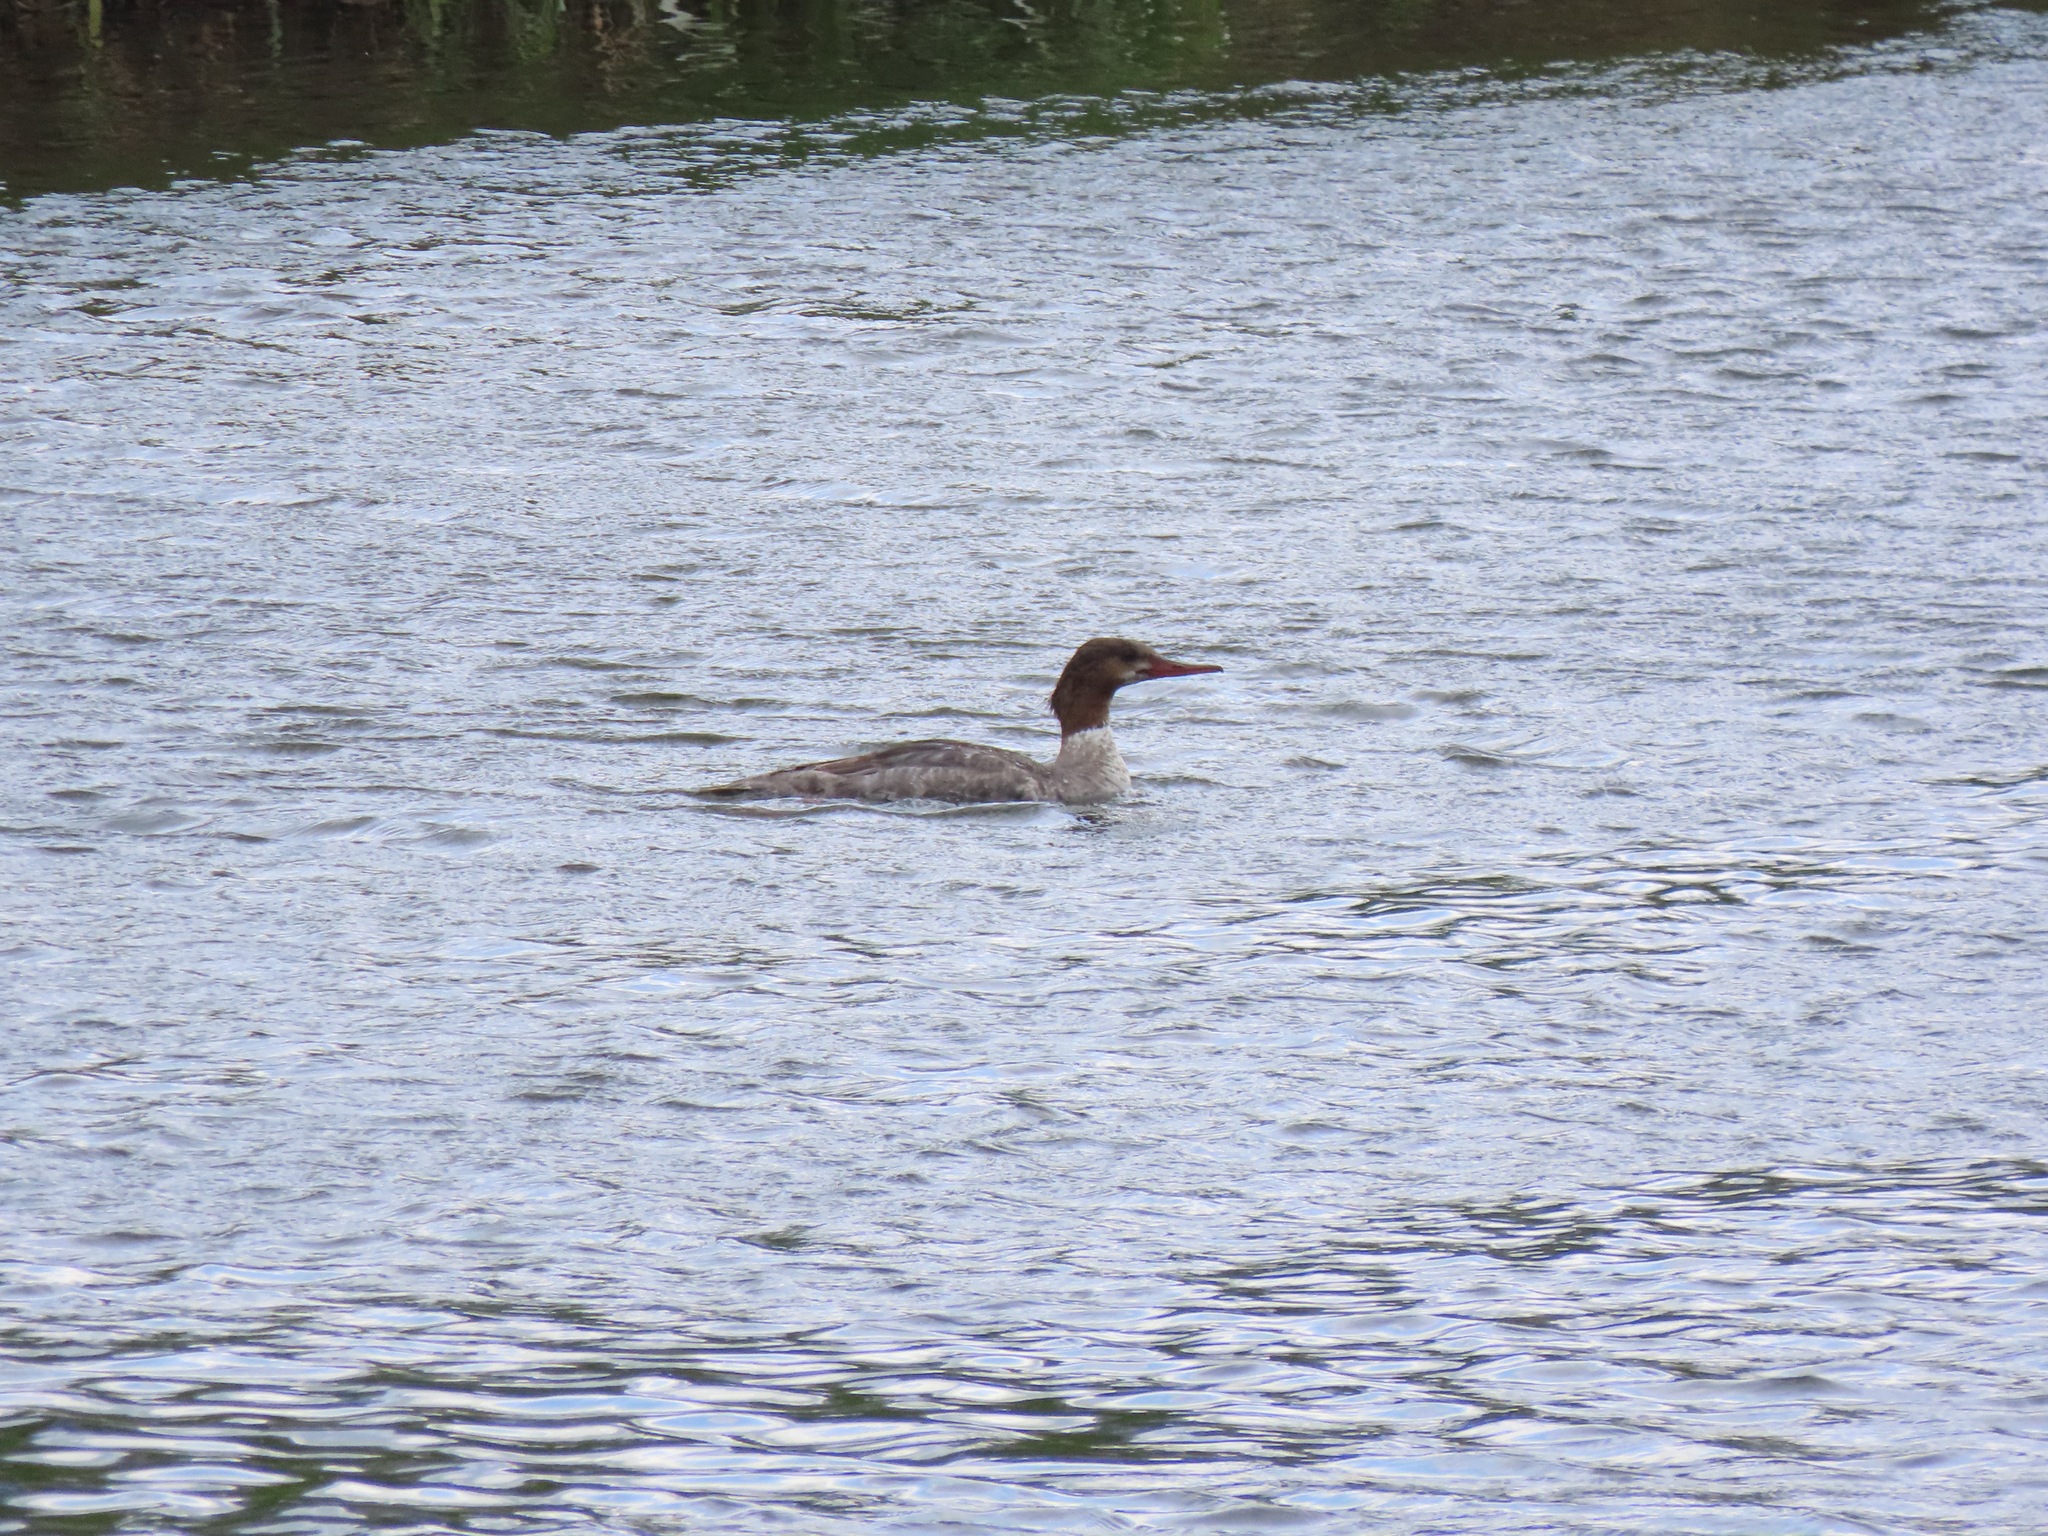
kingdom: Animalia
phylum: Chordata
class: Aves
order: Anseriformes
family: Anatidae
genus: Mergus
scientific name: Mergus merganser
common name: Common merganser
